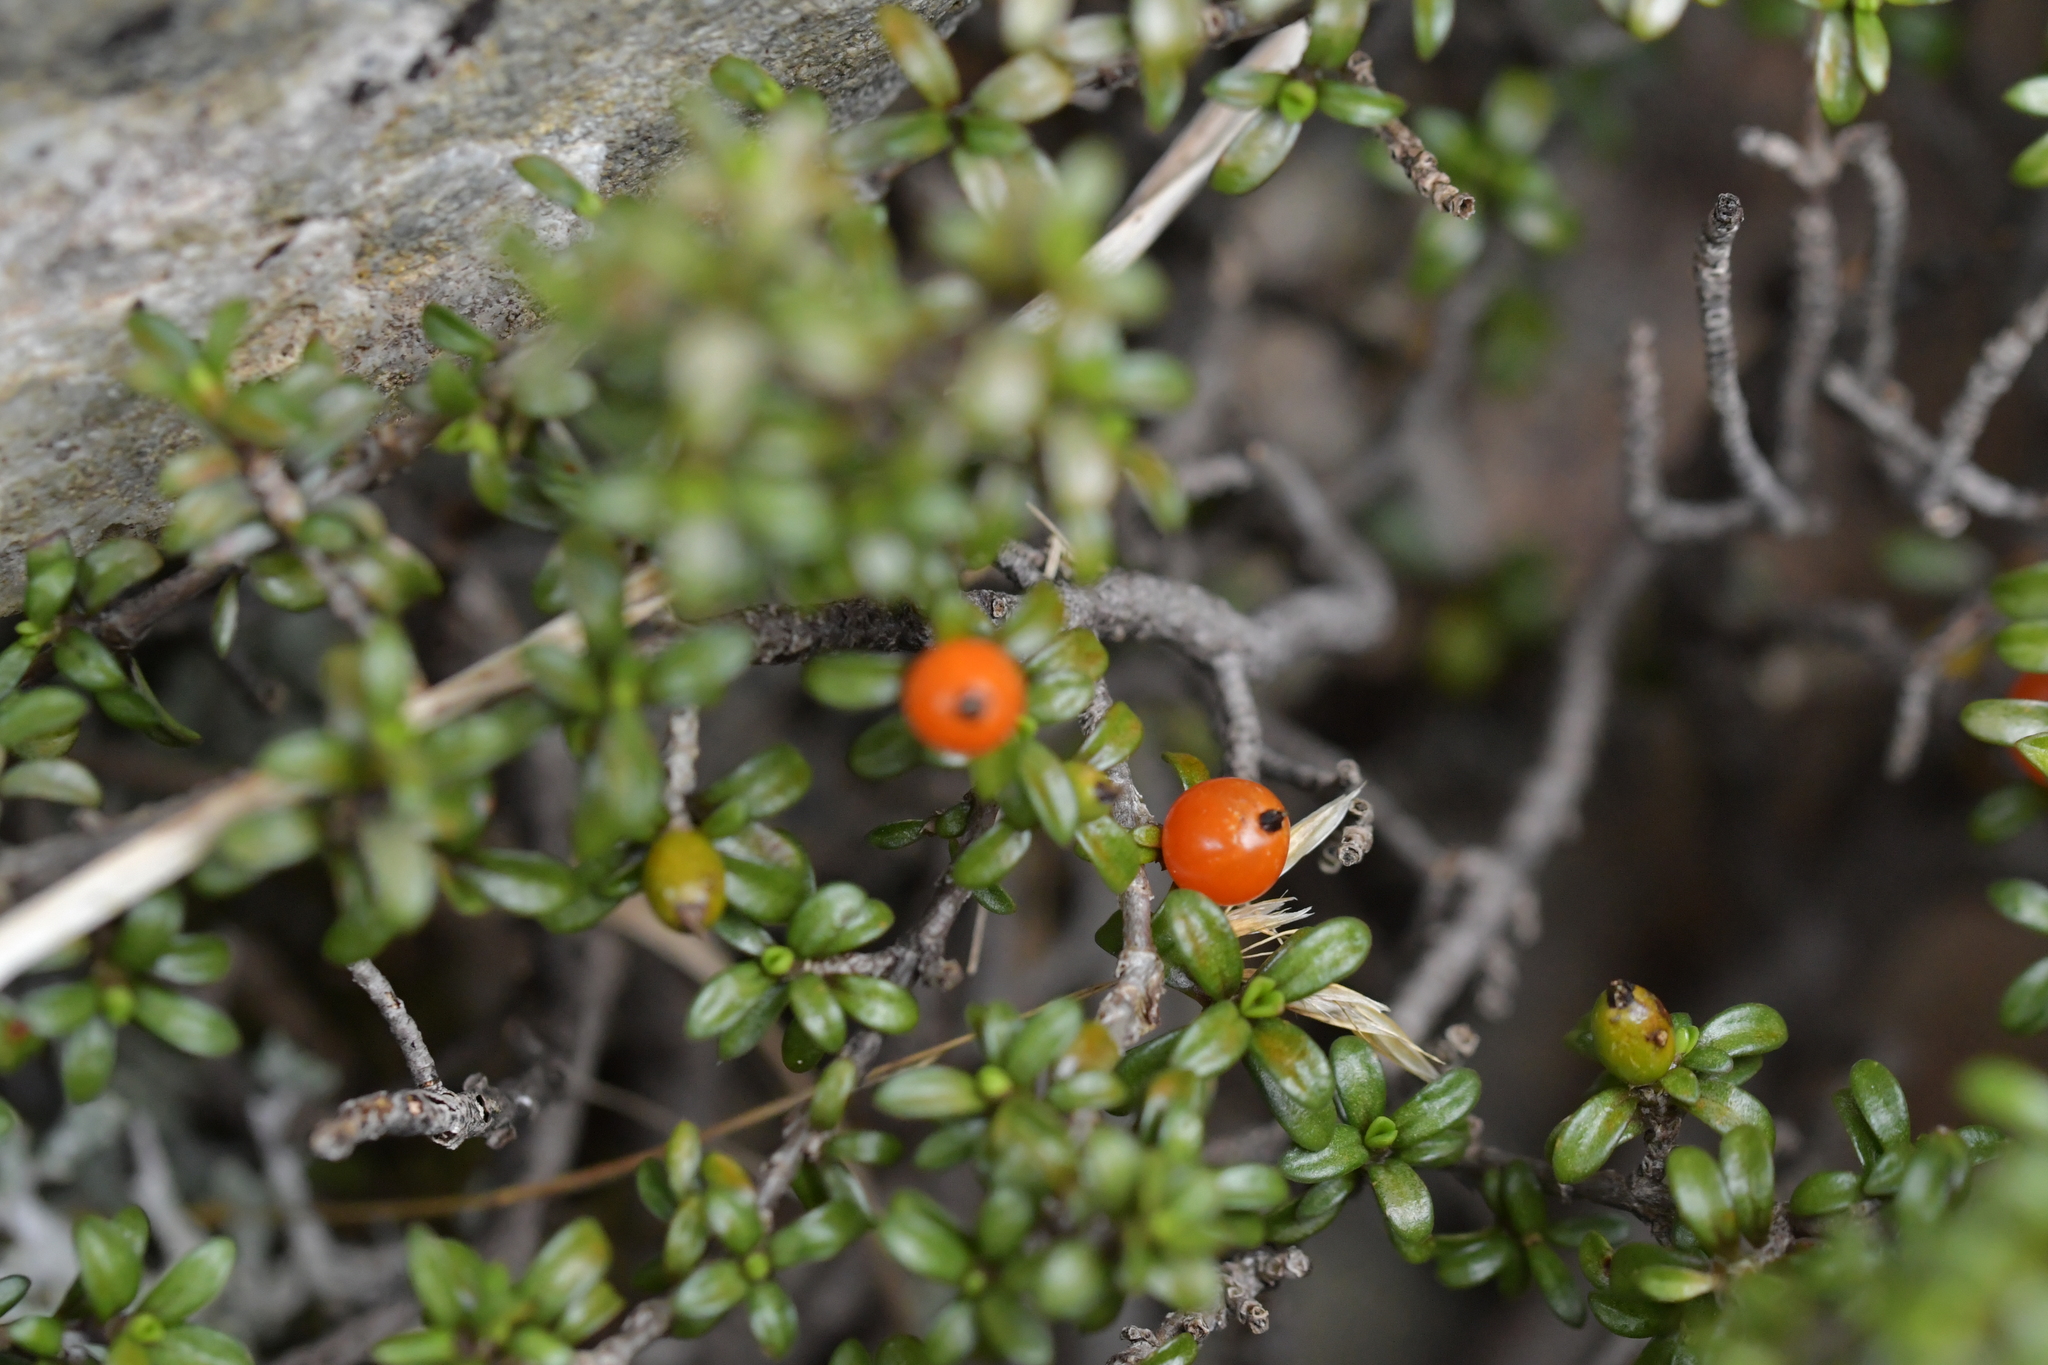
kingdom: Plantae
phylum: Tracheophyta
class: Magnoliopsida
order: Gentianales
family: Rubiaceae
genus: Coprosma
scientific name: Coprosma depressa
